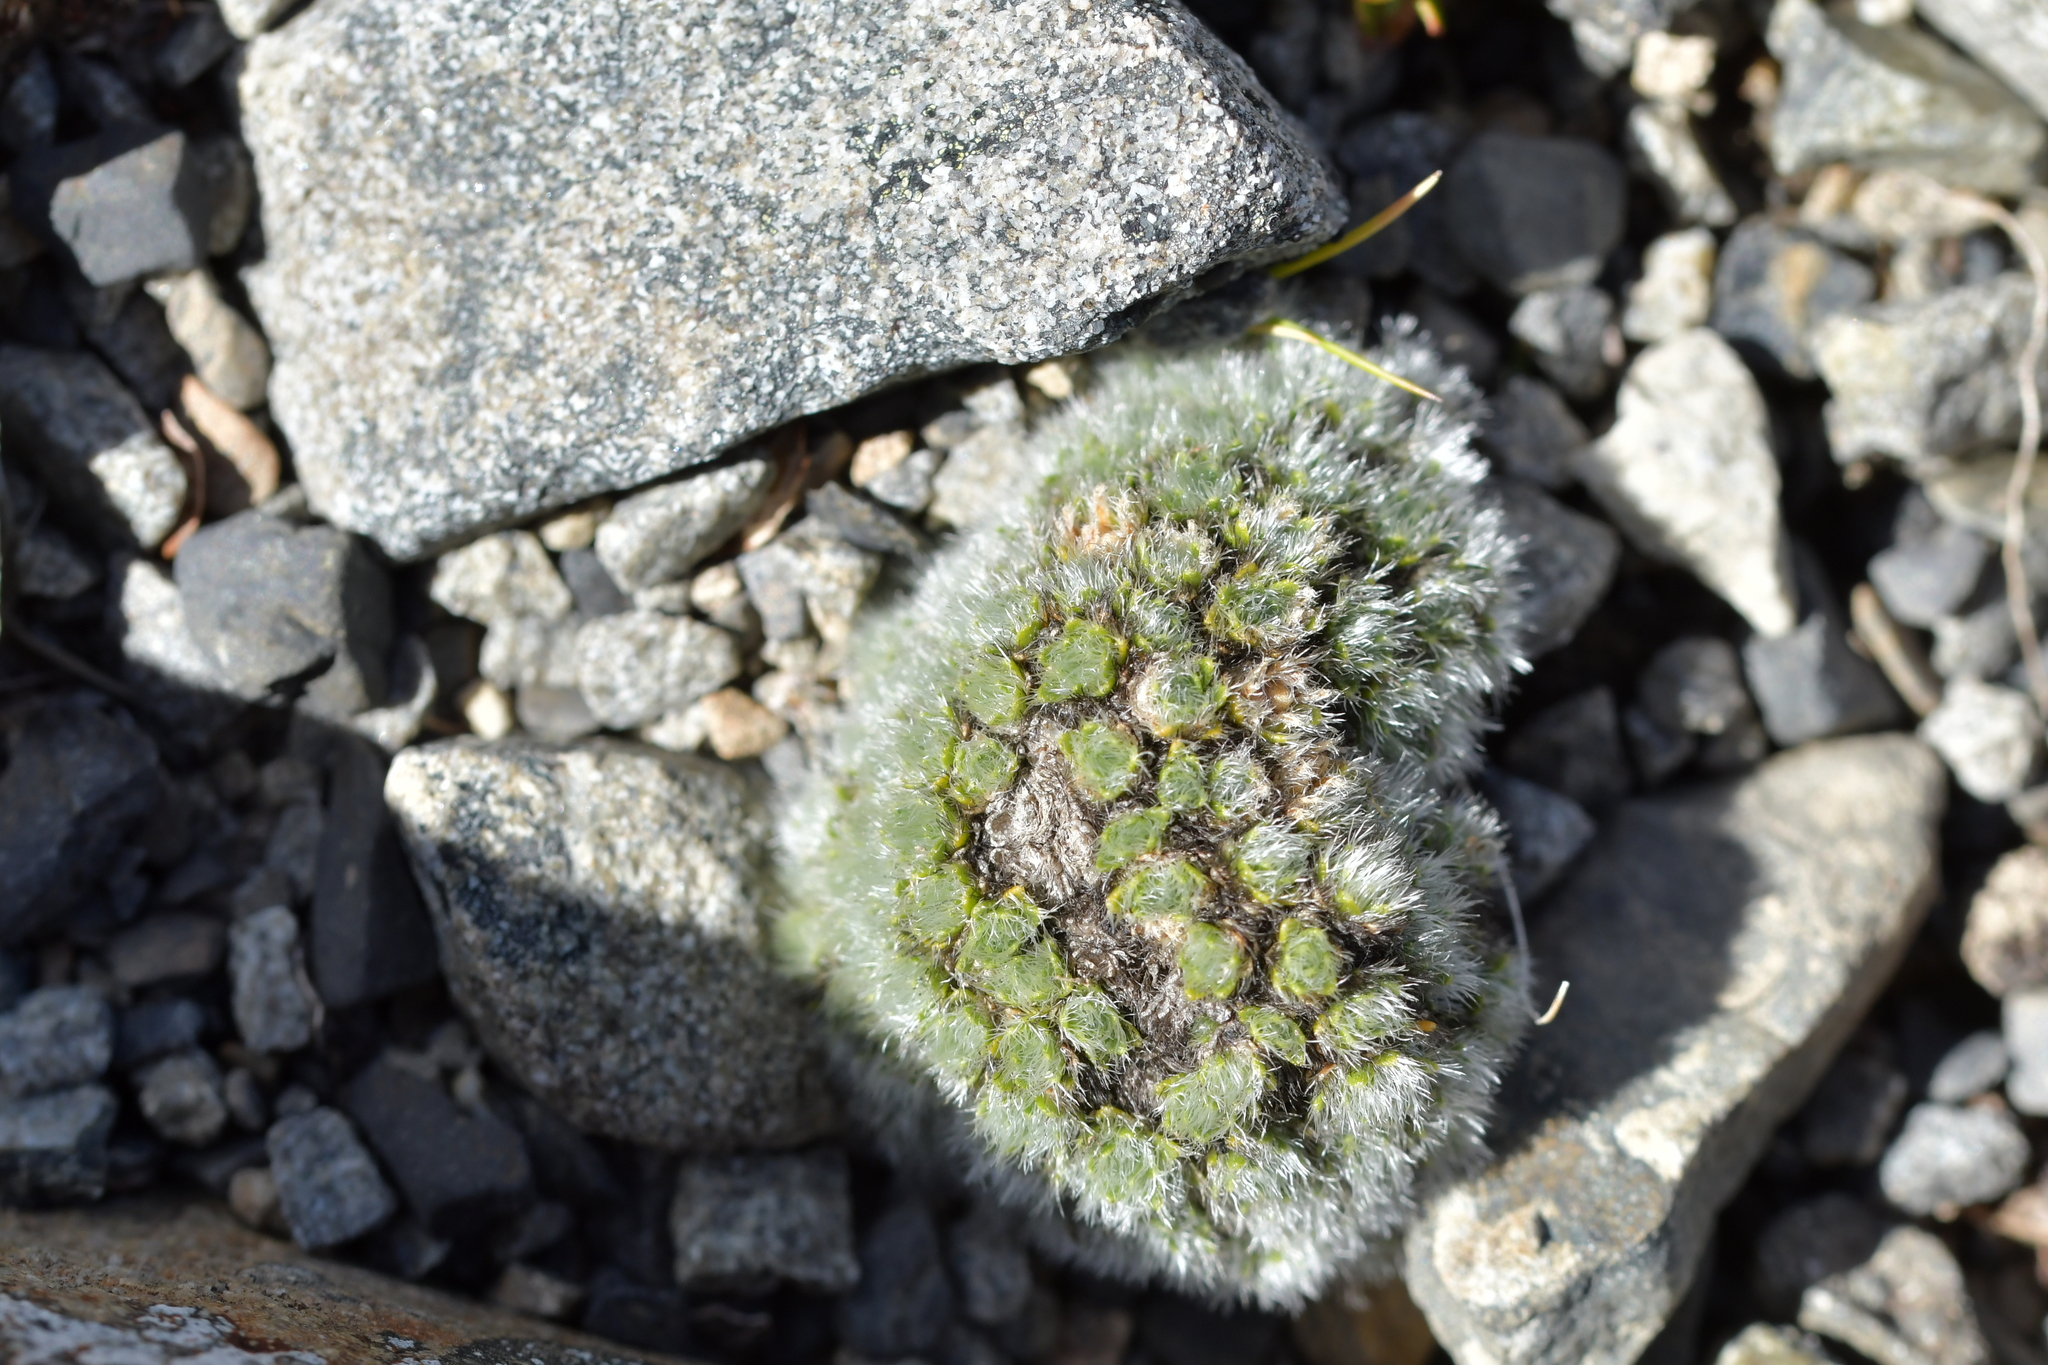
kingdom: Plantae
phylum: Tracheophyta
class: Magnoliopsida
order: Lamiales
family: Plantaginaceae
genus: Veronica
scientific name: Veronica pulvinaris
